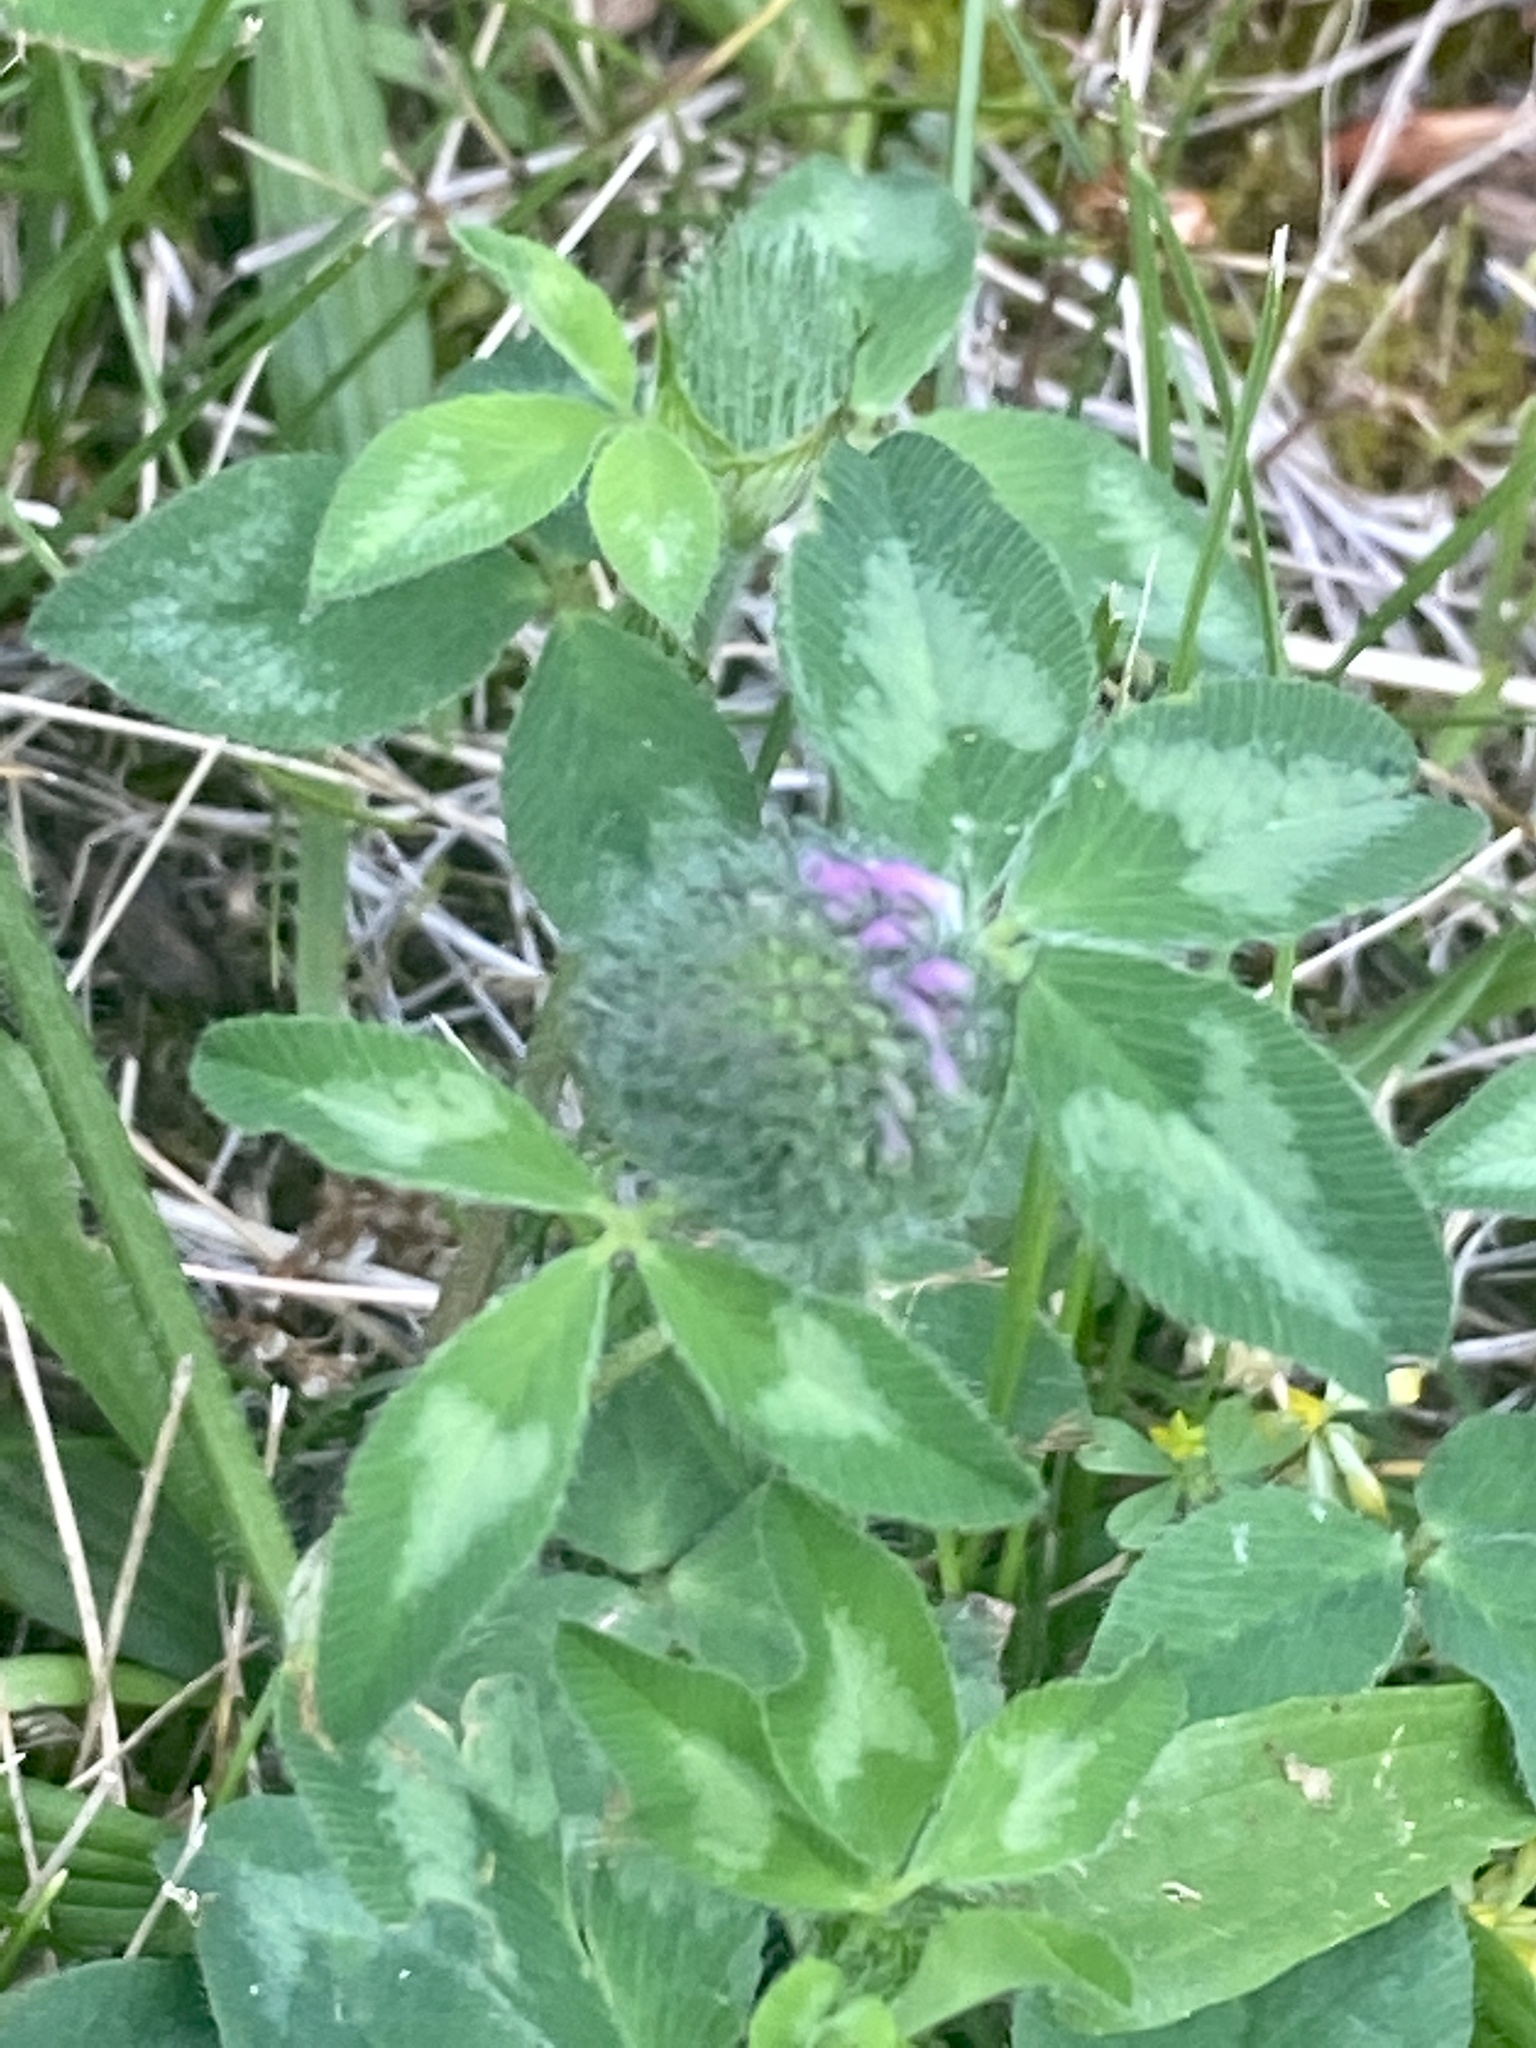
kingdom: Plantae
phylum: Tracheophyta
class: Magnoliopsida
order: Fabales
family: Fabaceae
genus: Trifolium
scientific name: Trifolium pratense
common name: Red clover
